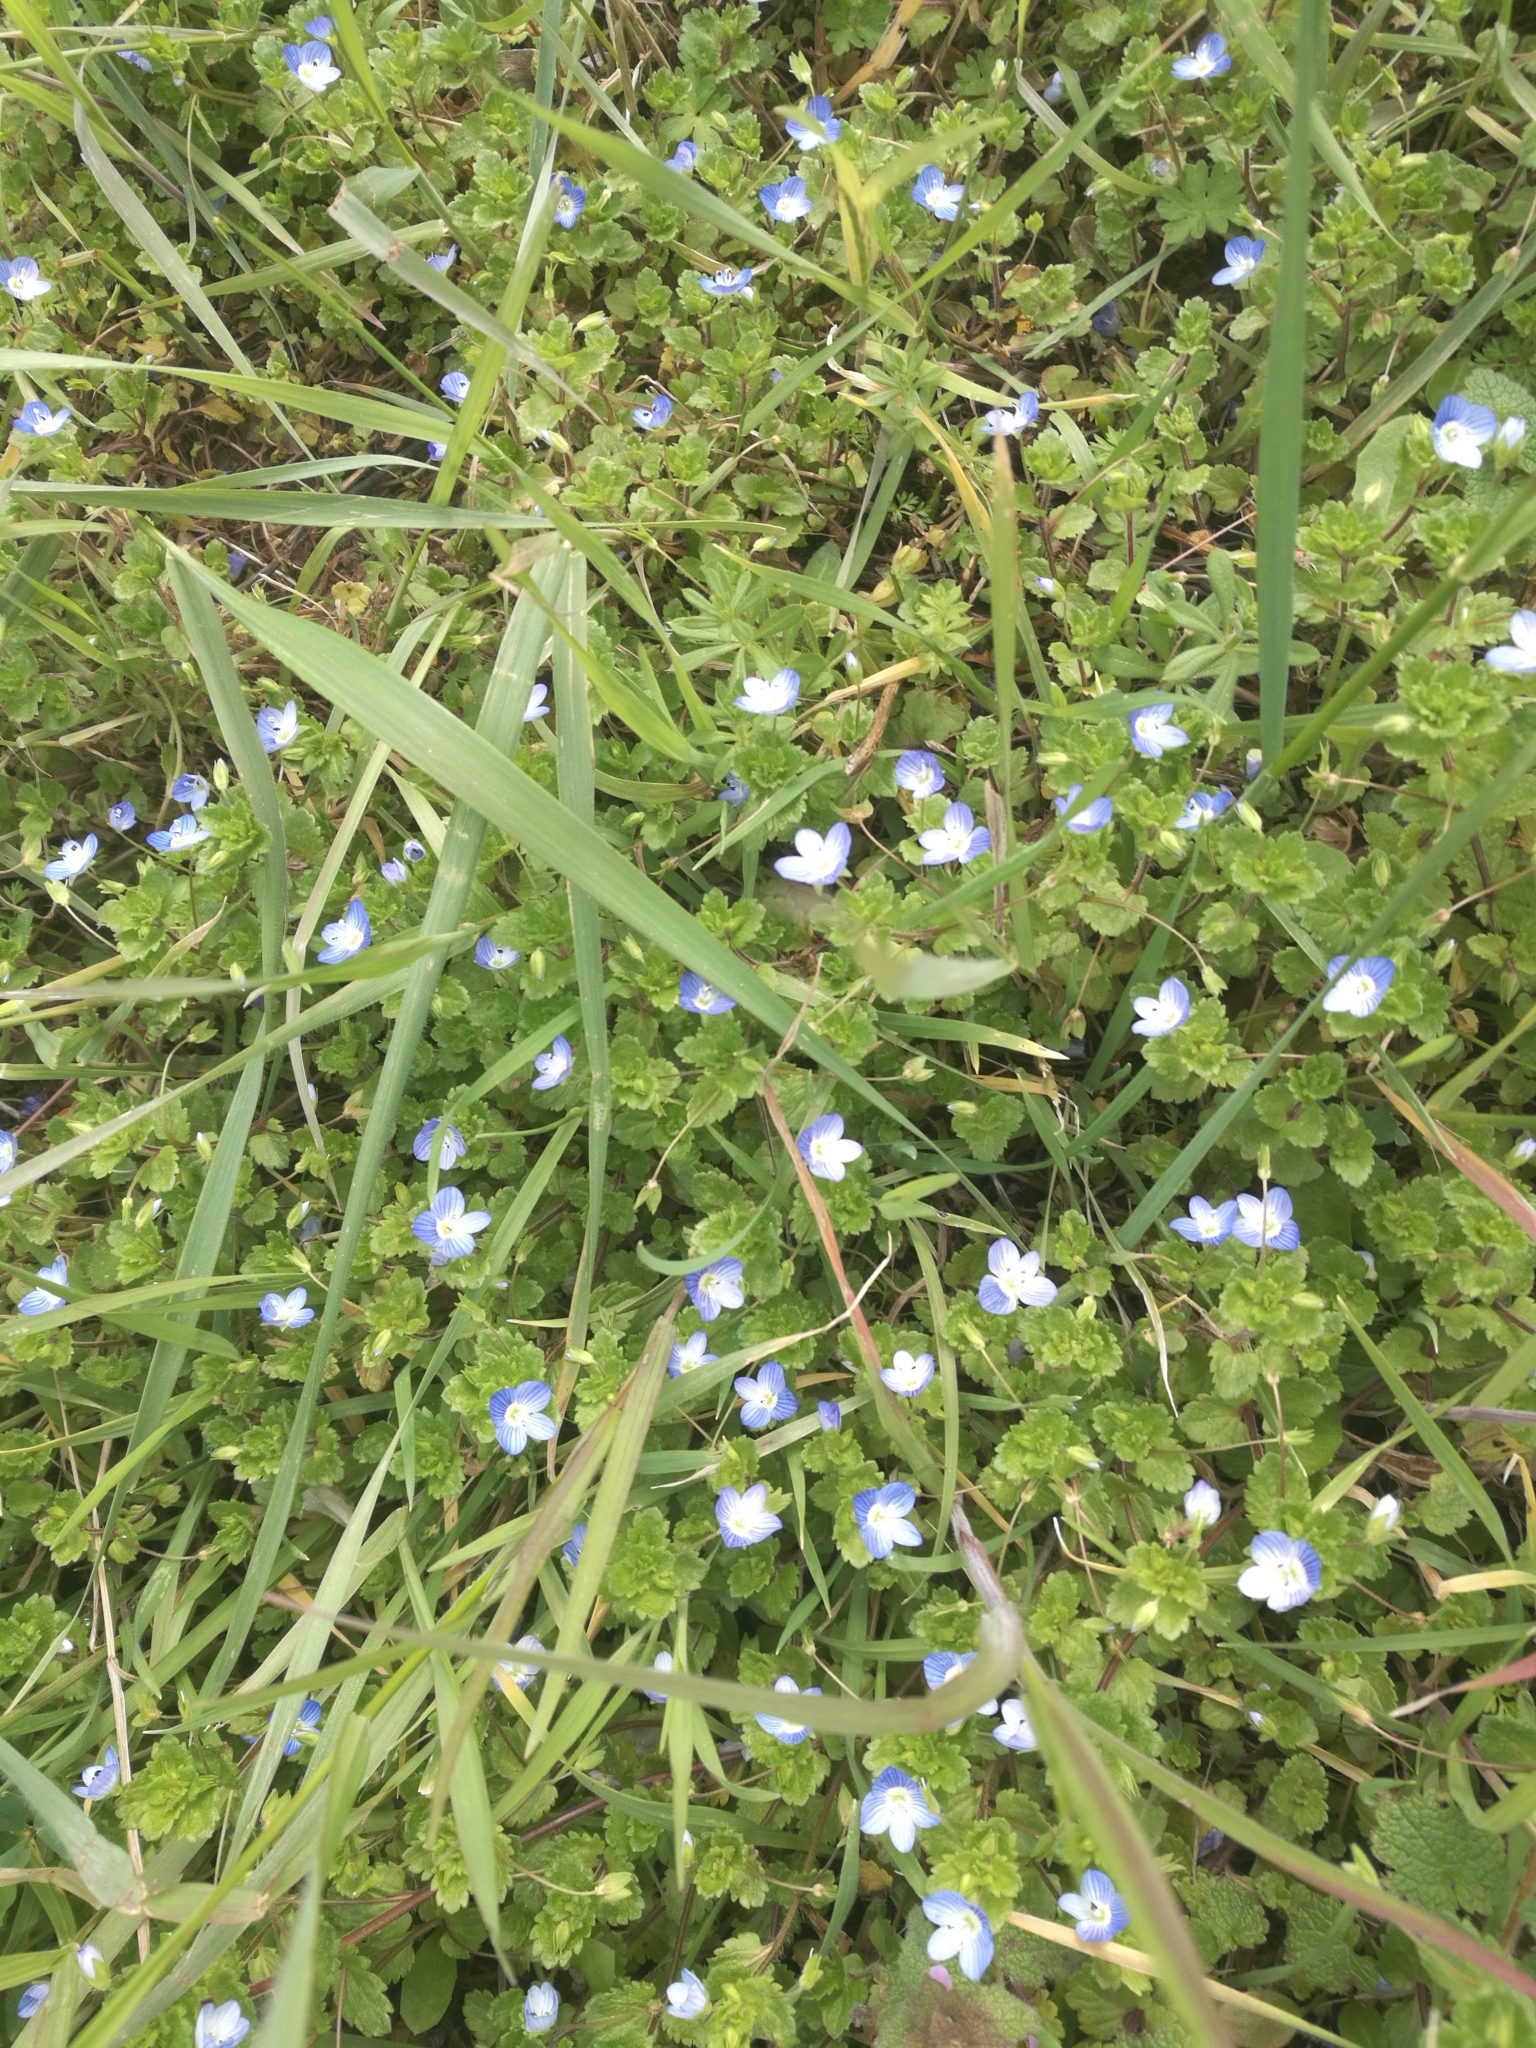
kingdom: Plantae
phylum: Tracheophyta
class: Magnoliopsida
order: Lamiales
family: Plantaginaceae
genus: Veronica
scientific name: Veronica persica
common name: Common field-speedwell
